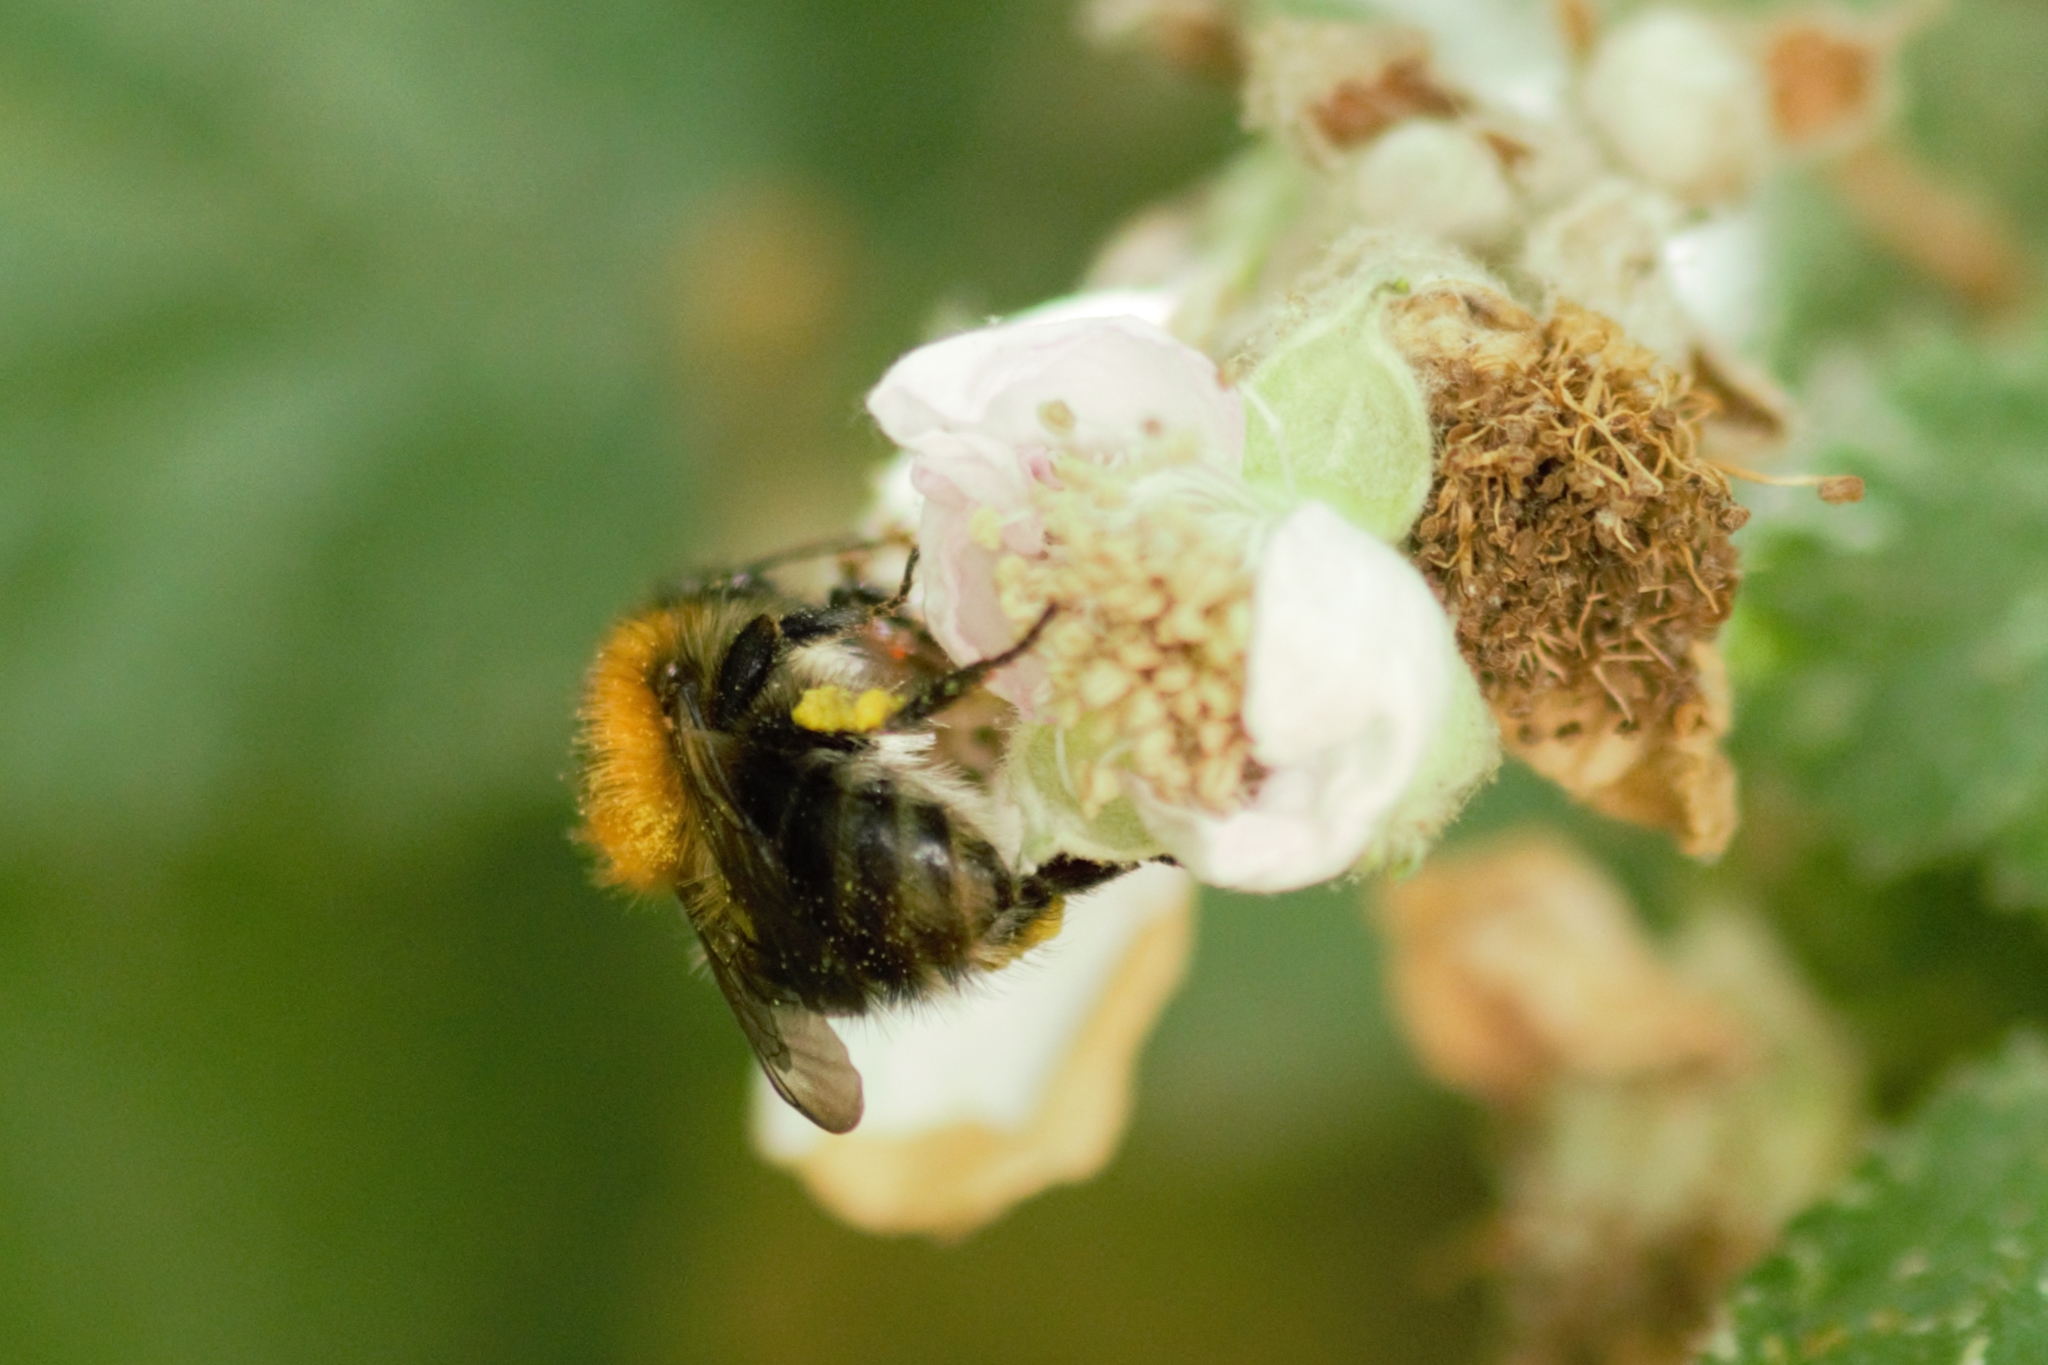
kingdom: Animalia
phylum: Arthropoda
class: Insecta
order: Hymenoptera
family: Apidae
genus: Bombus
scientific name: Bombus pascuorum
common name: Common carder bee
